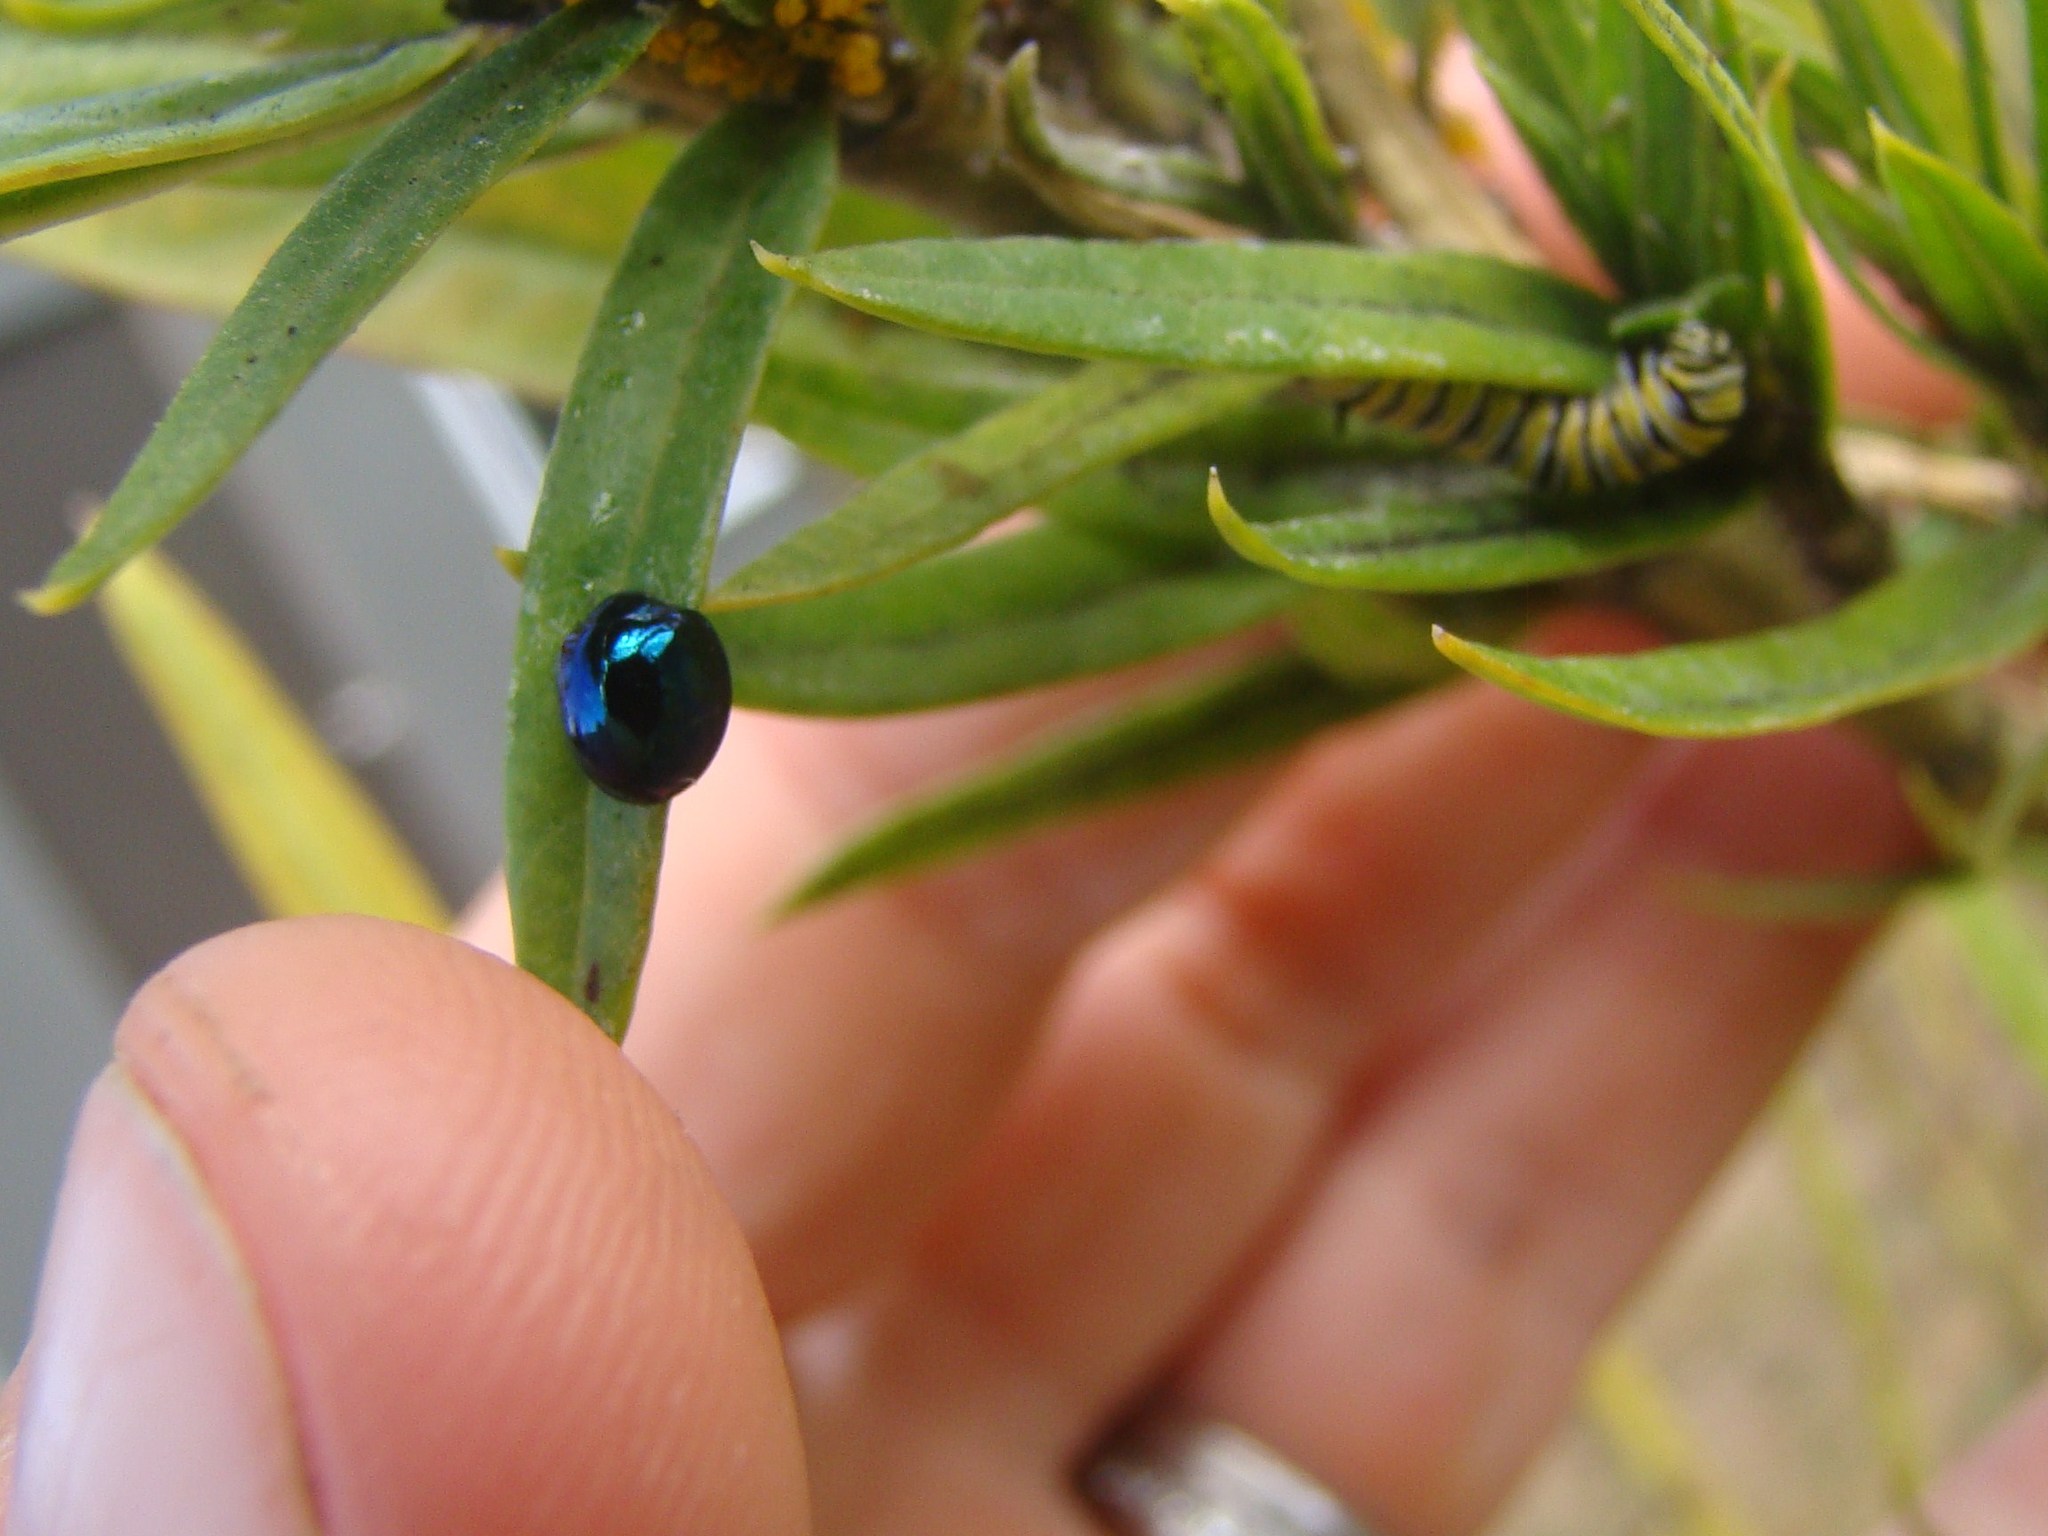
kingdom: Animalia
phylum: Arthropoda
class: Insecta
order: Coleoptera
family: Coccinellidae
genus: Halmus
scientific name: Halmus chalybeus
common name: Steel blue ladybird beetle
